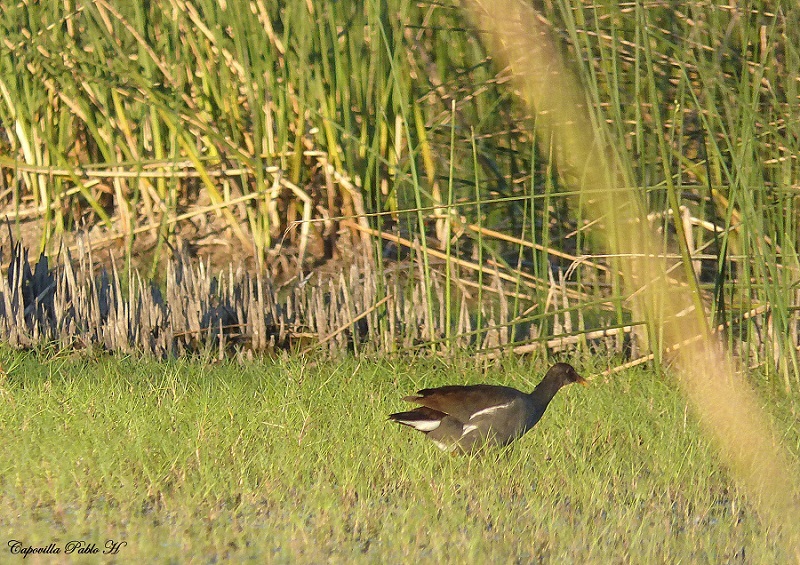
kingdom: Animalia
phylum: Chordata
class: Aves
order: Gruiformes
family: Rallidae
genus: Gallinula
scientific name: Gallinula chloropus
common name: Common moorhen
